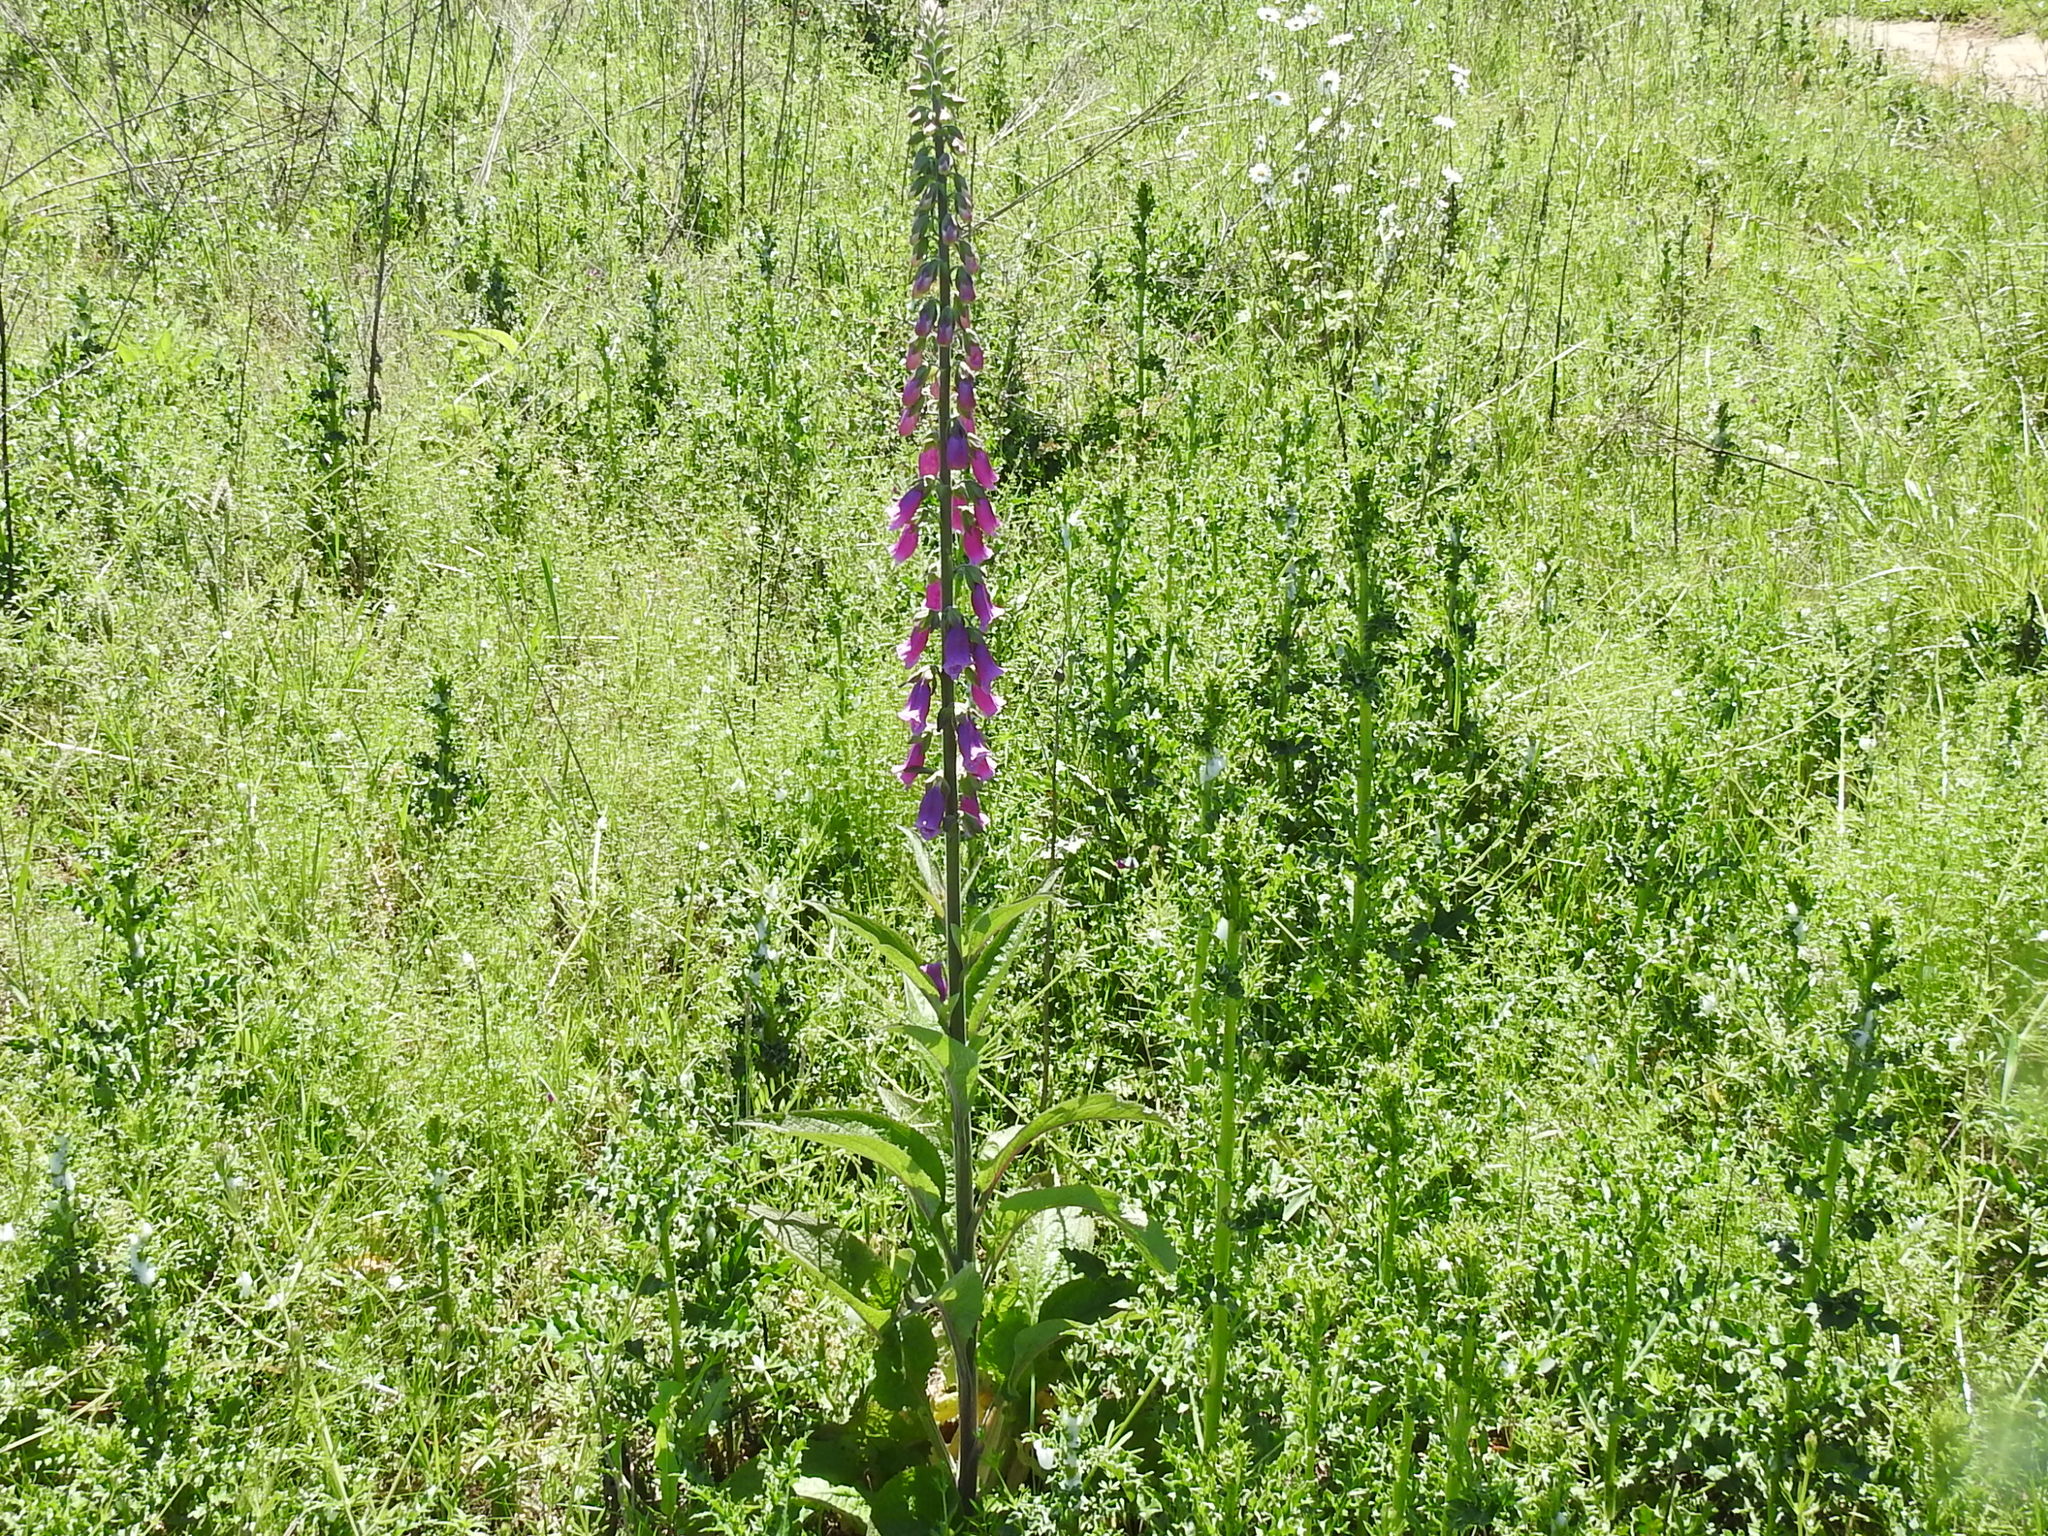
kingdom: Plantae
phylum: Tracheophyta
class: Magnoliopsida
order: Lamiales
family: Plantaginaceae
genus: Digitalis
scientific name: Digitalis purpurea
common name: Foxglove
